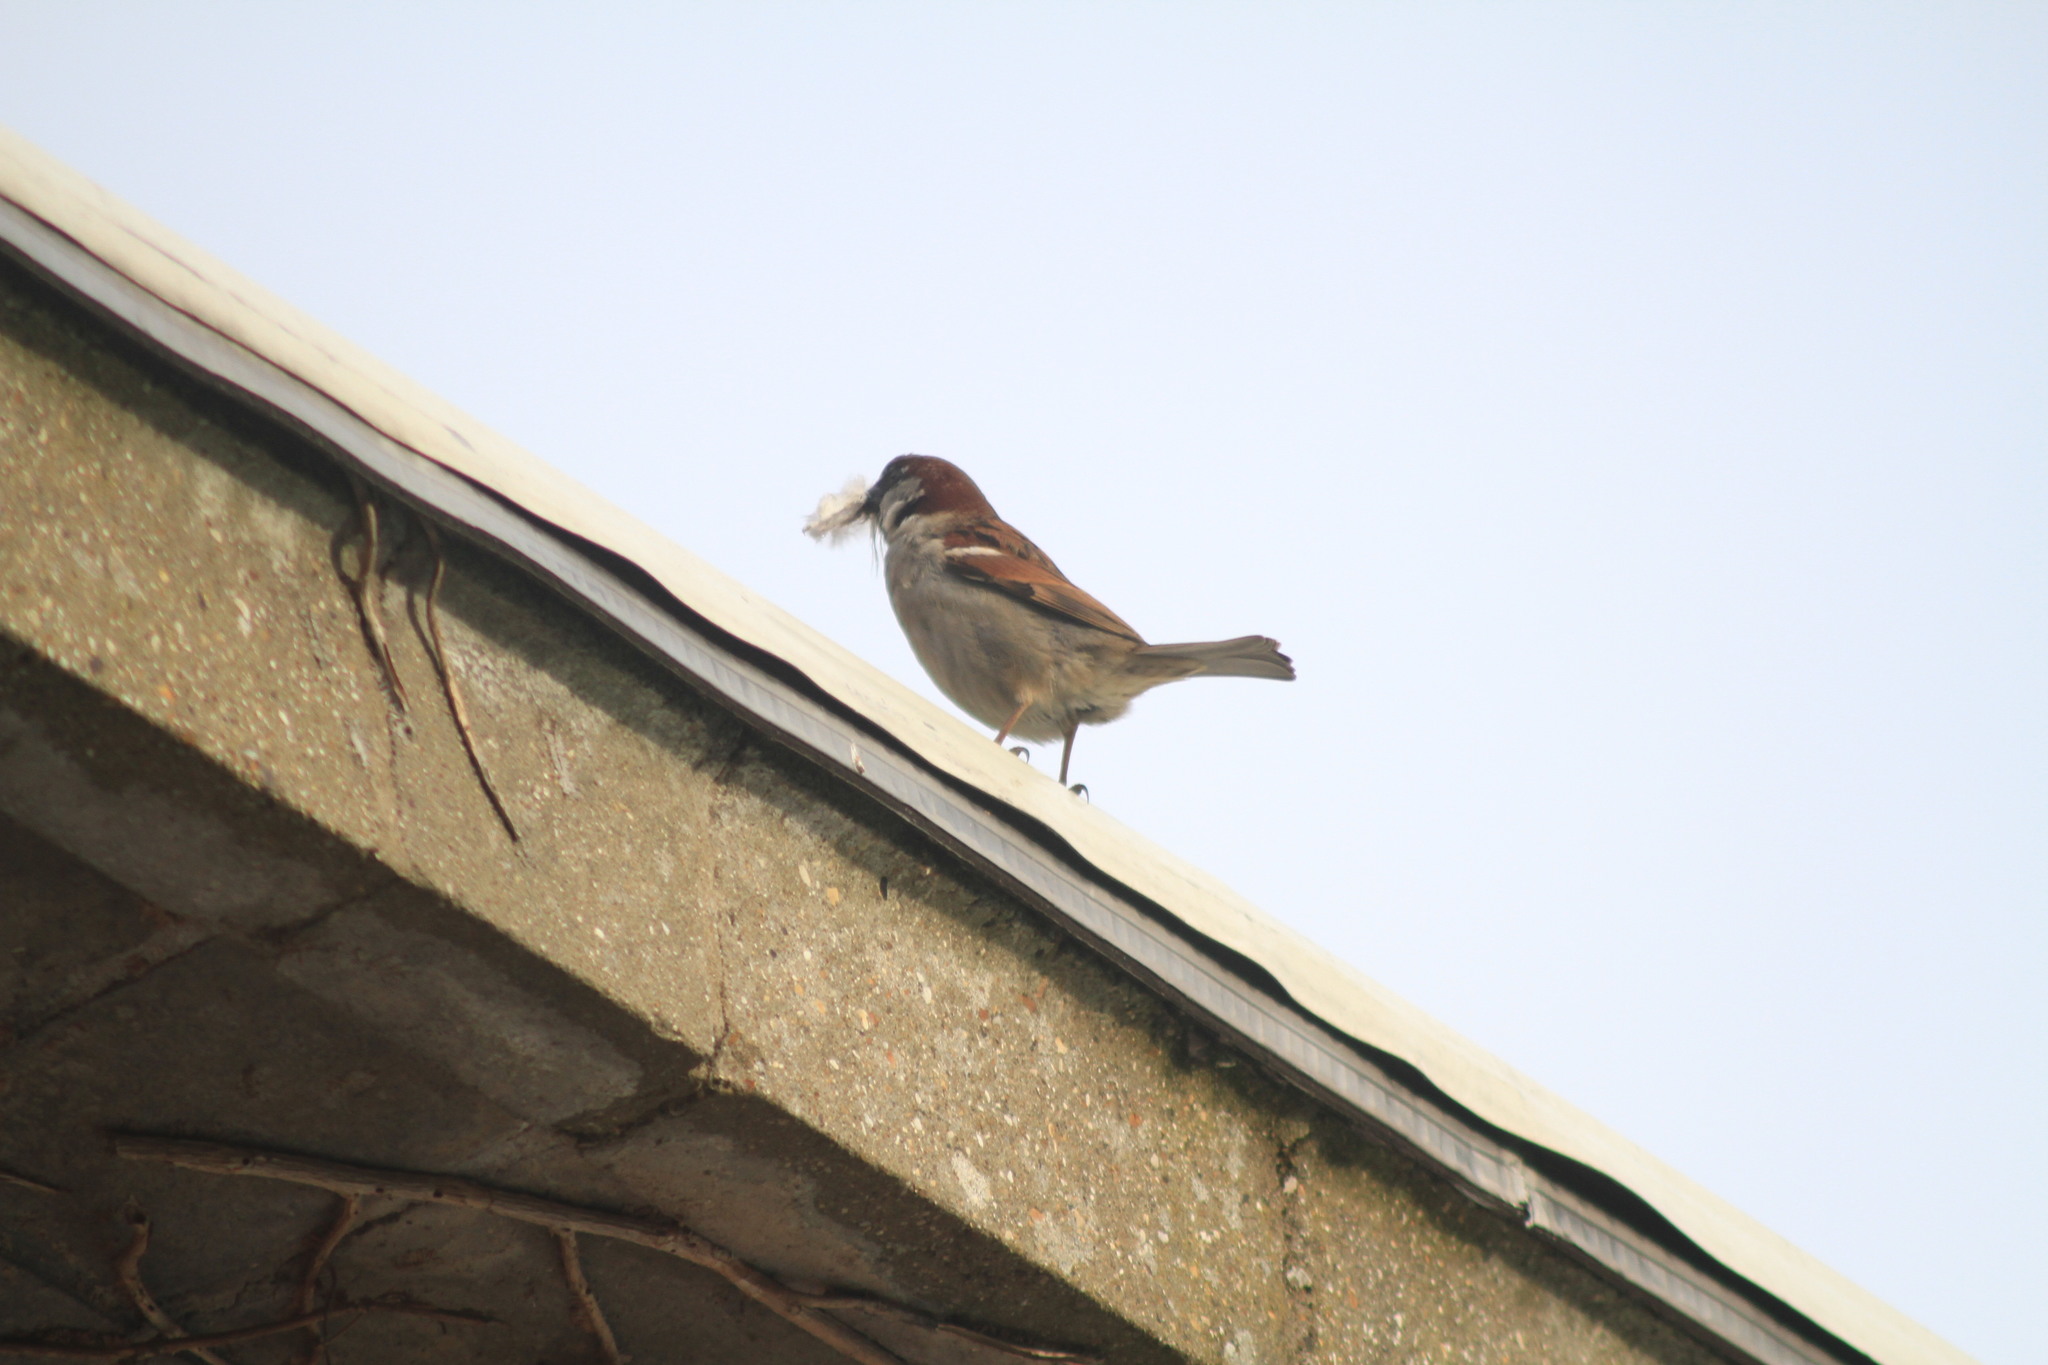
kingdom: Animalia
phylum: Chordata
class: Aves
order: Passeriformes
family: Passeridae
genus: Passer
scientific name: Passer domesticus
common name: House sparrow
